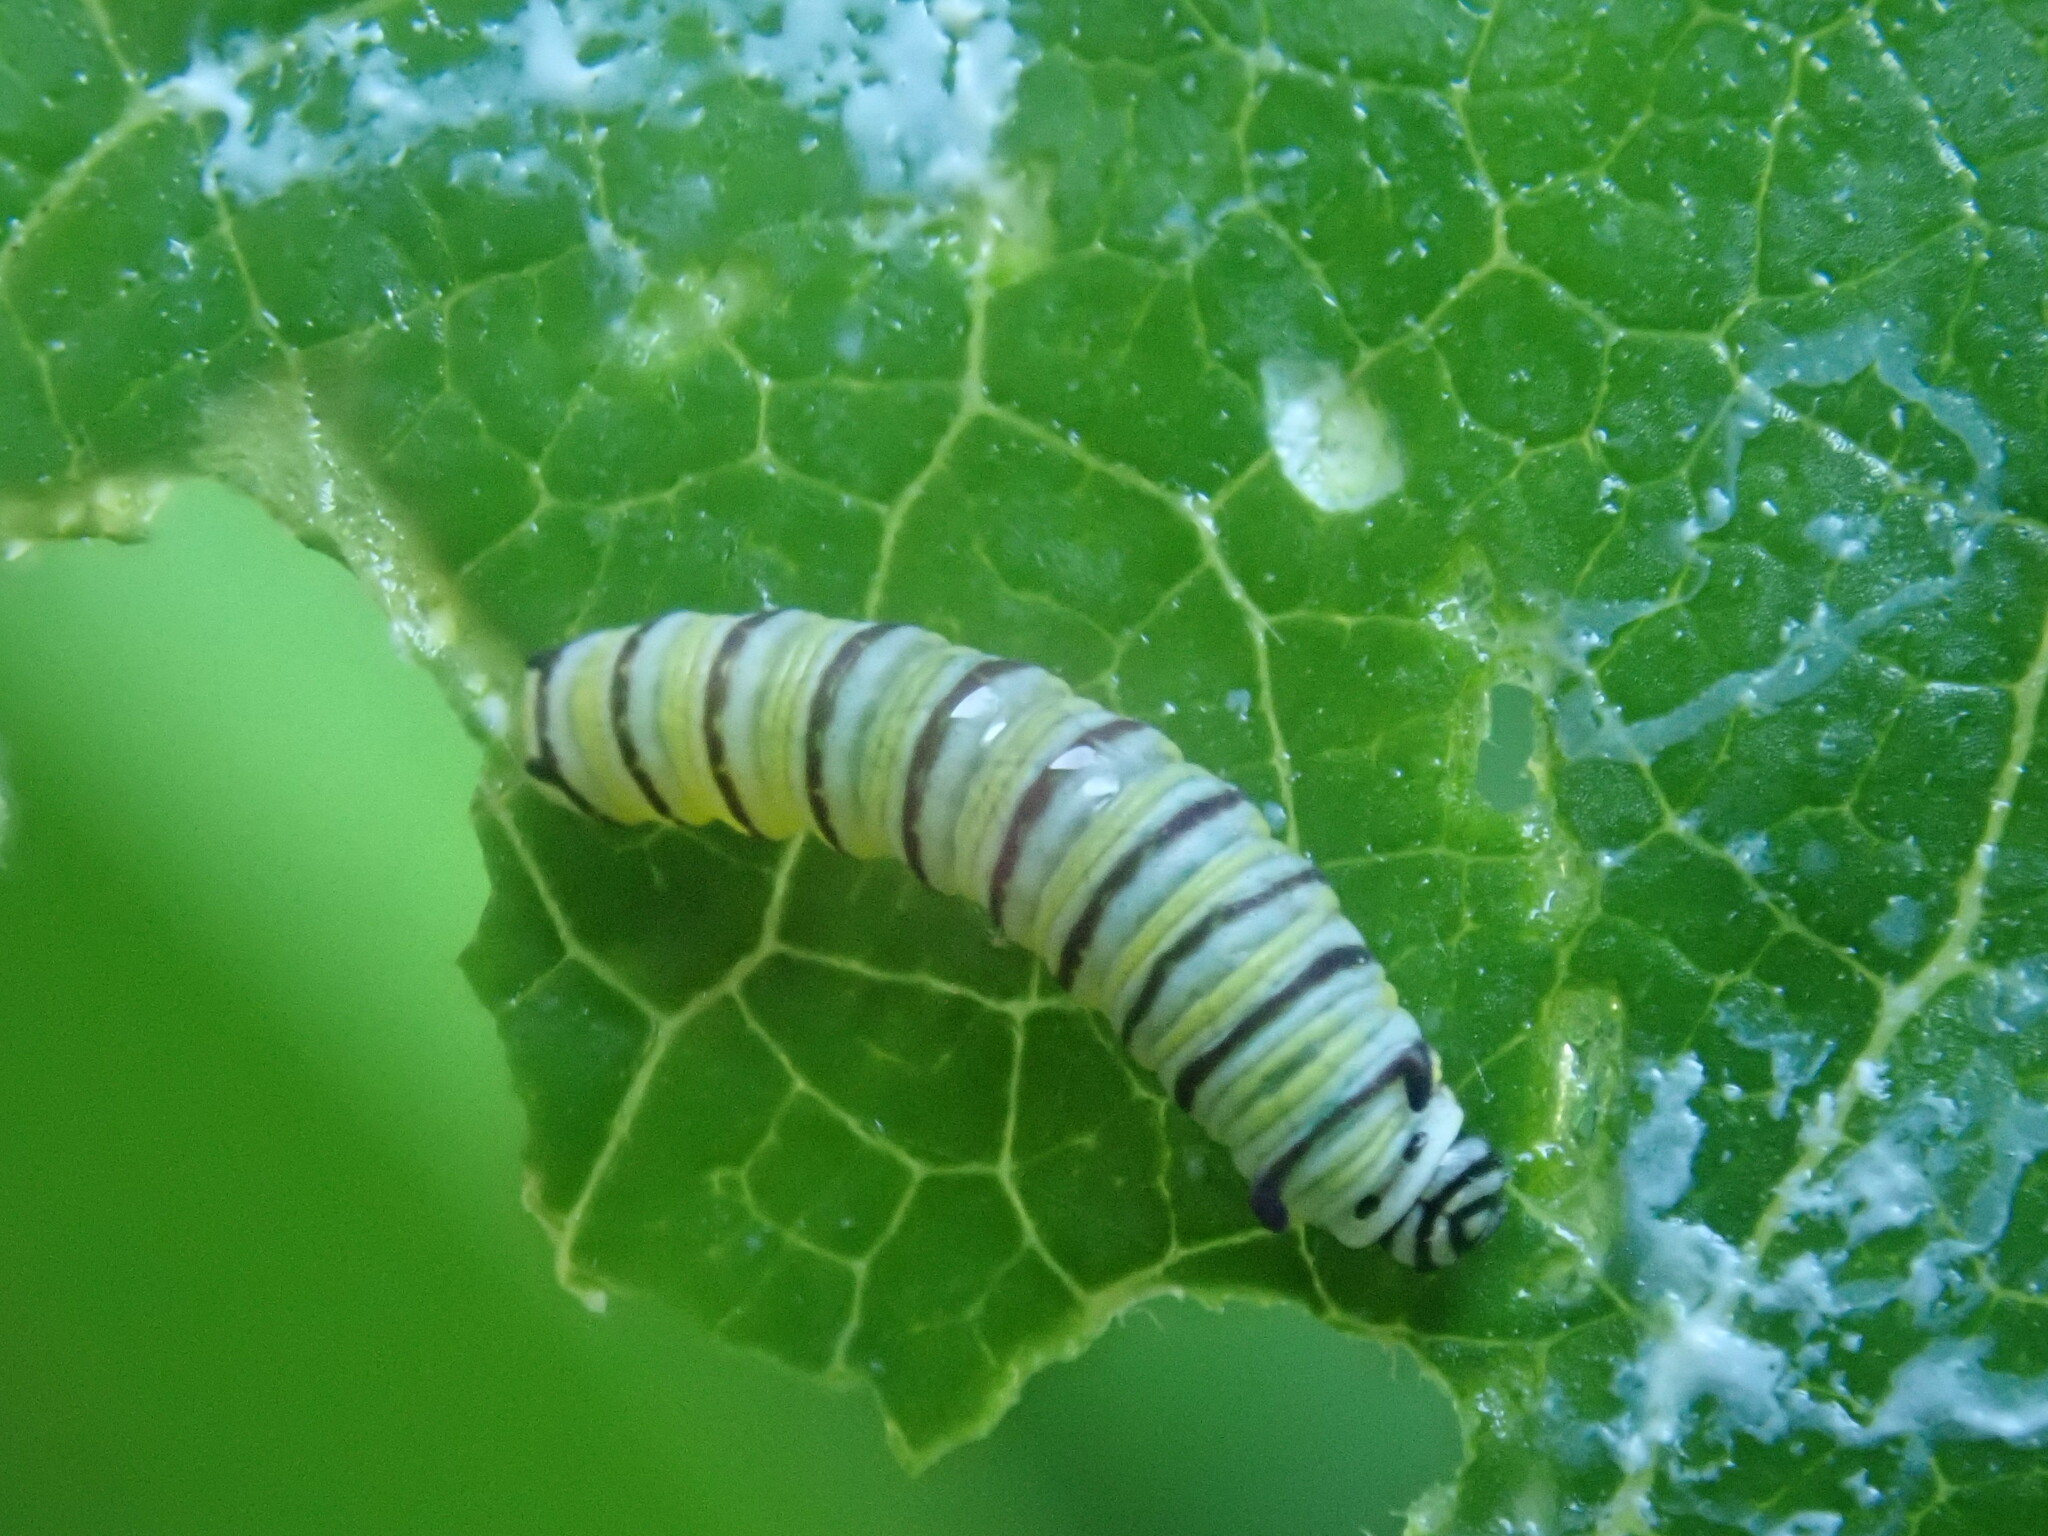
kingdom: Animalia
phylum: Arthropoda
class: Insecta
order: Lepidoptera
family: Nymphalidae
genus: Danaus
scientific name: Danaus plexippus
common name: Monarch
